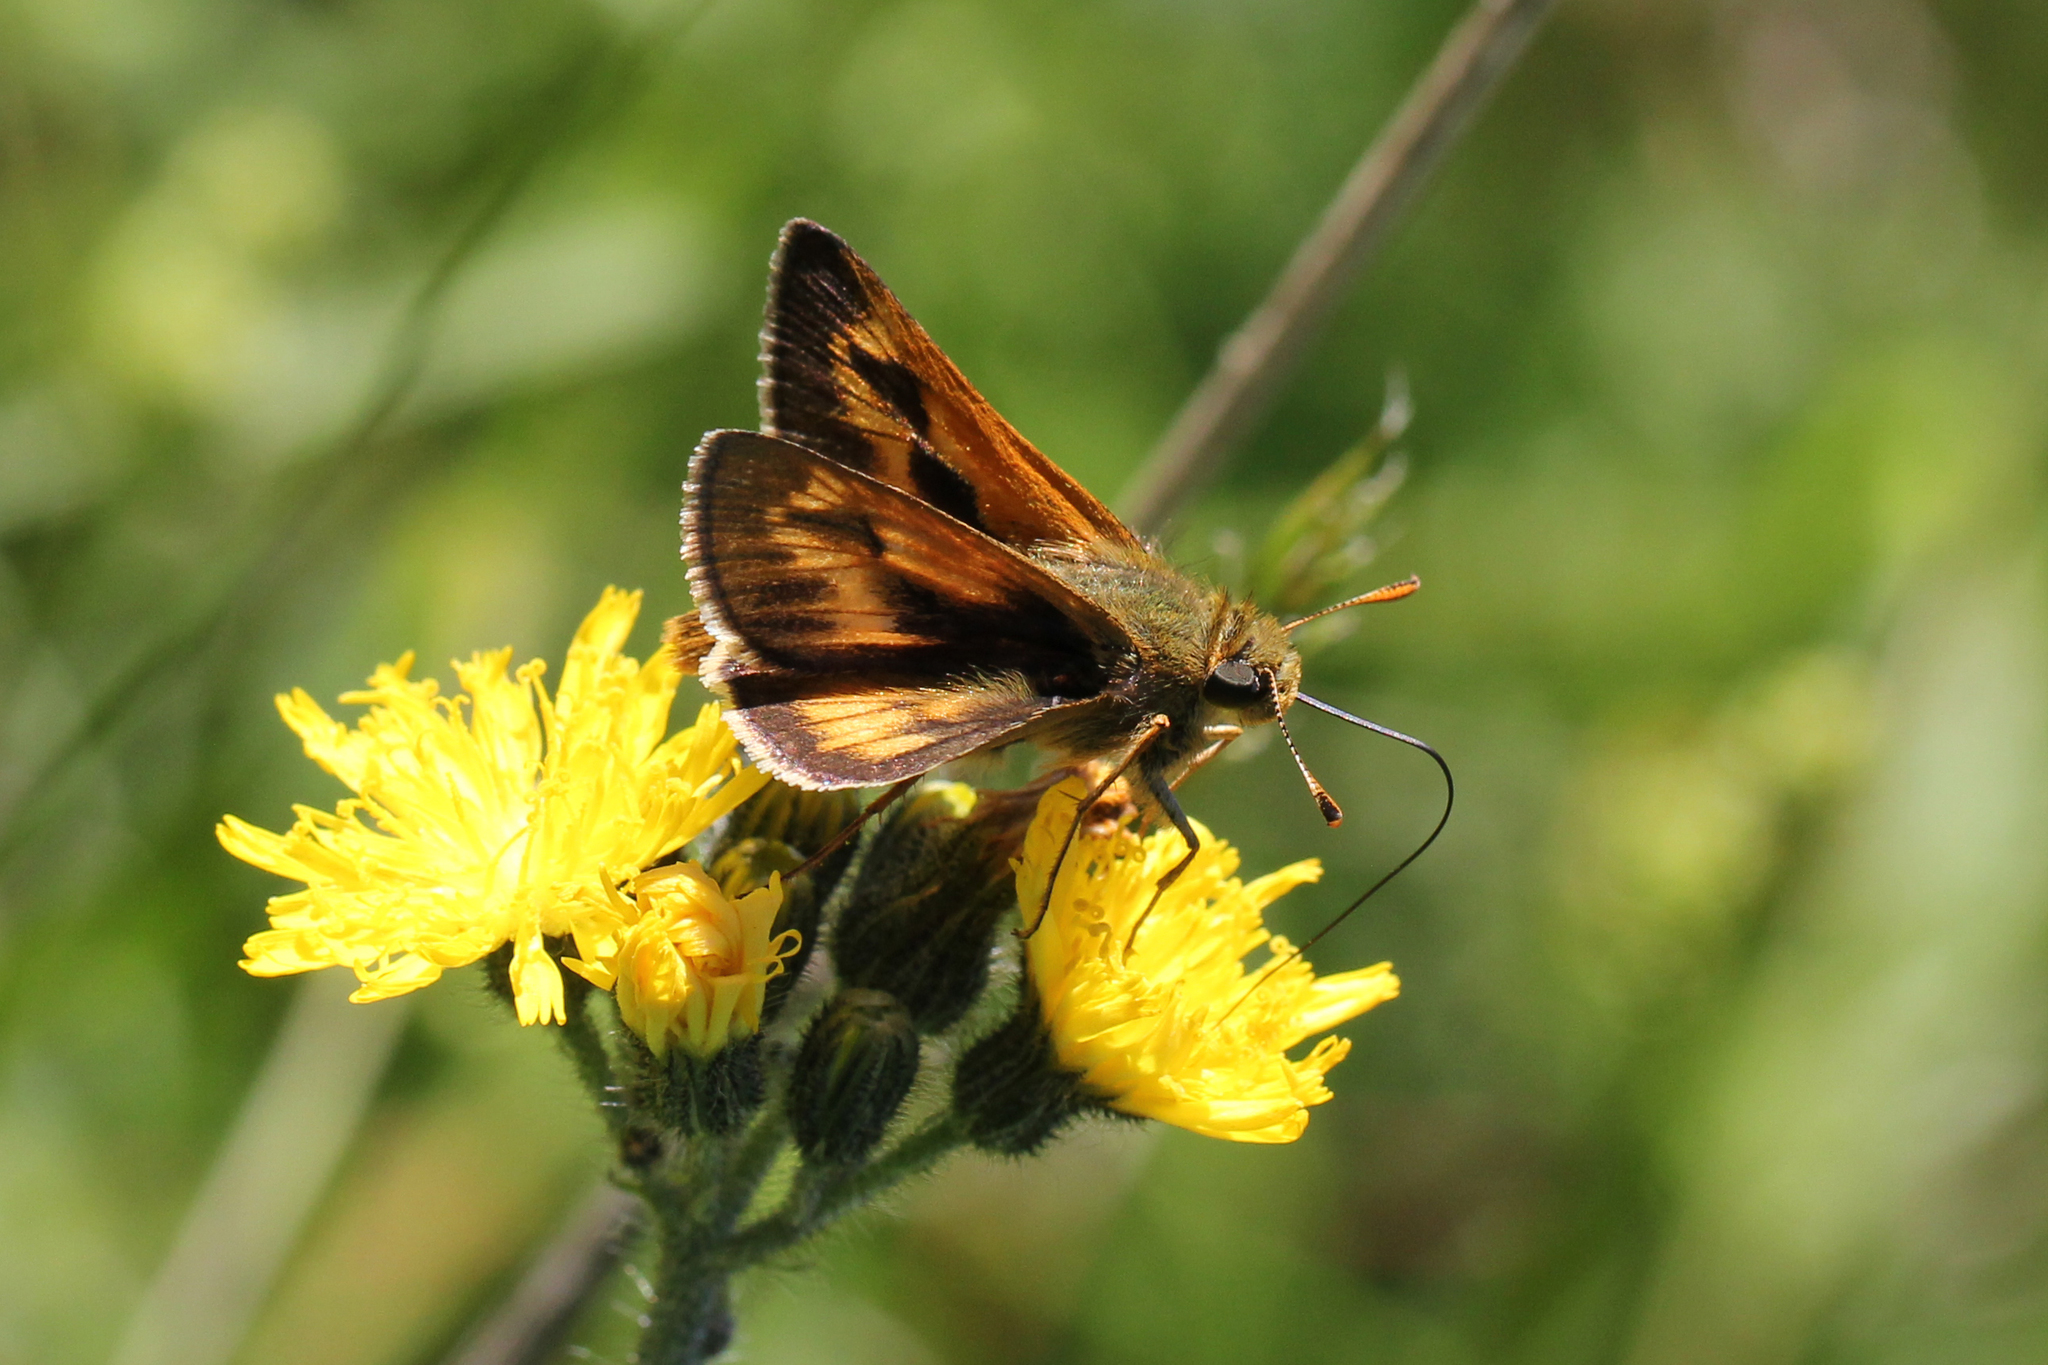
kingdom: Animalia
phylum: Arthropoda
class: Insecta
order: Lepidoptera
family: Hesperiidae
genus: Polites
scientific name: Polites mystic
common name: Long dash
